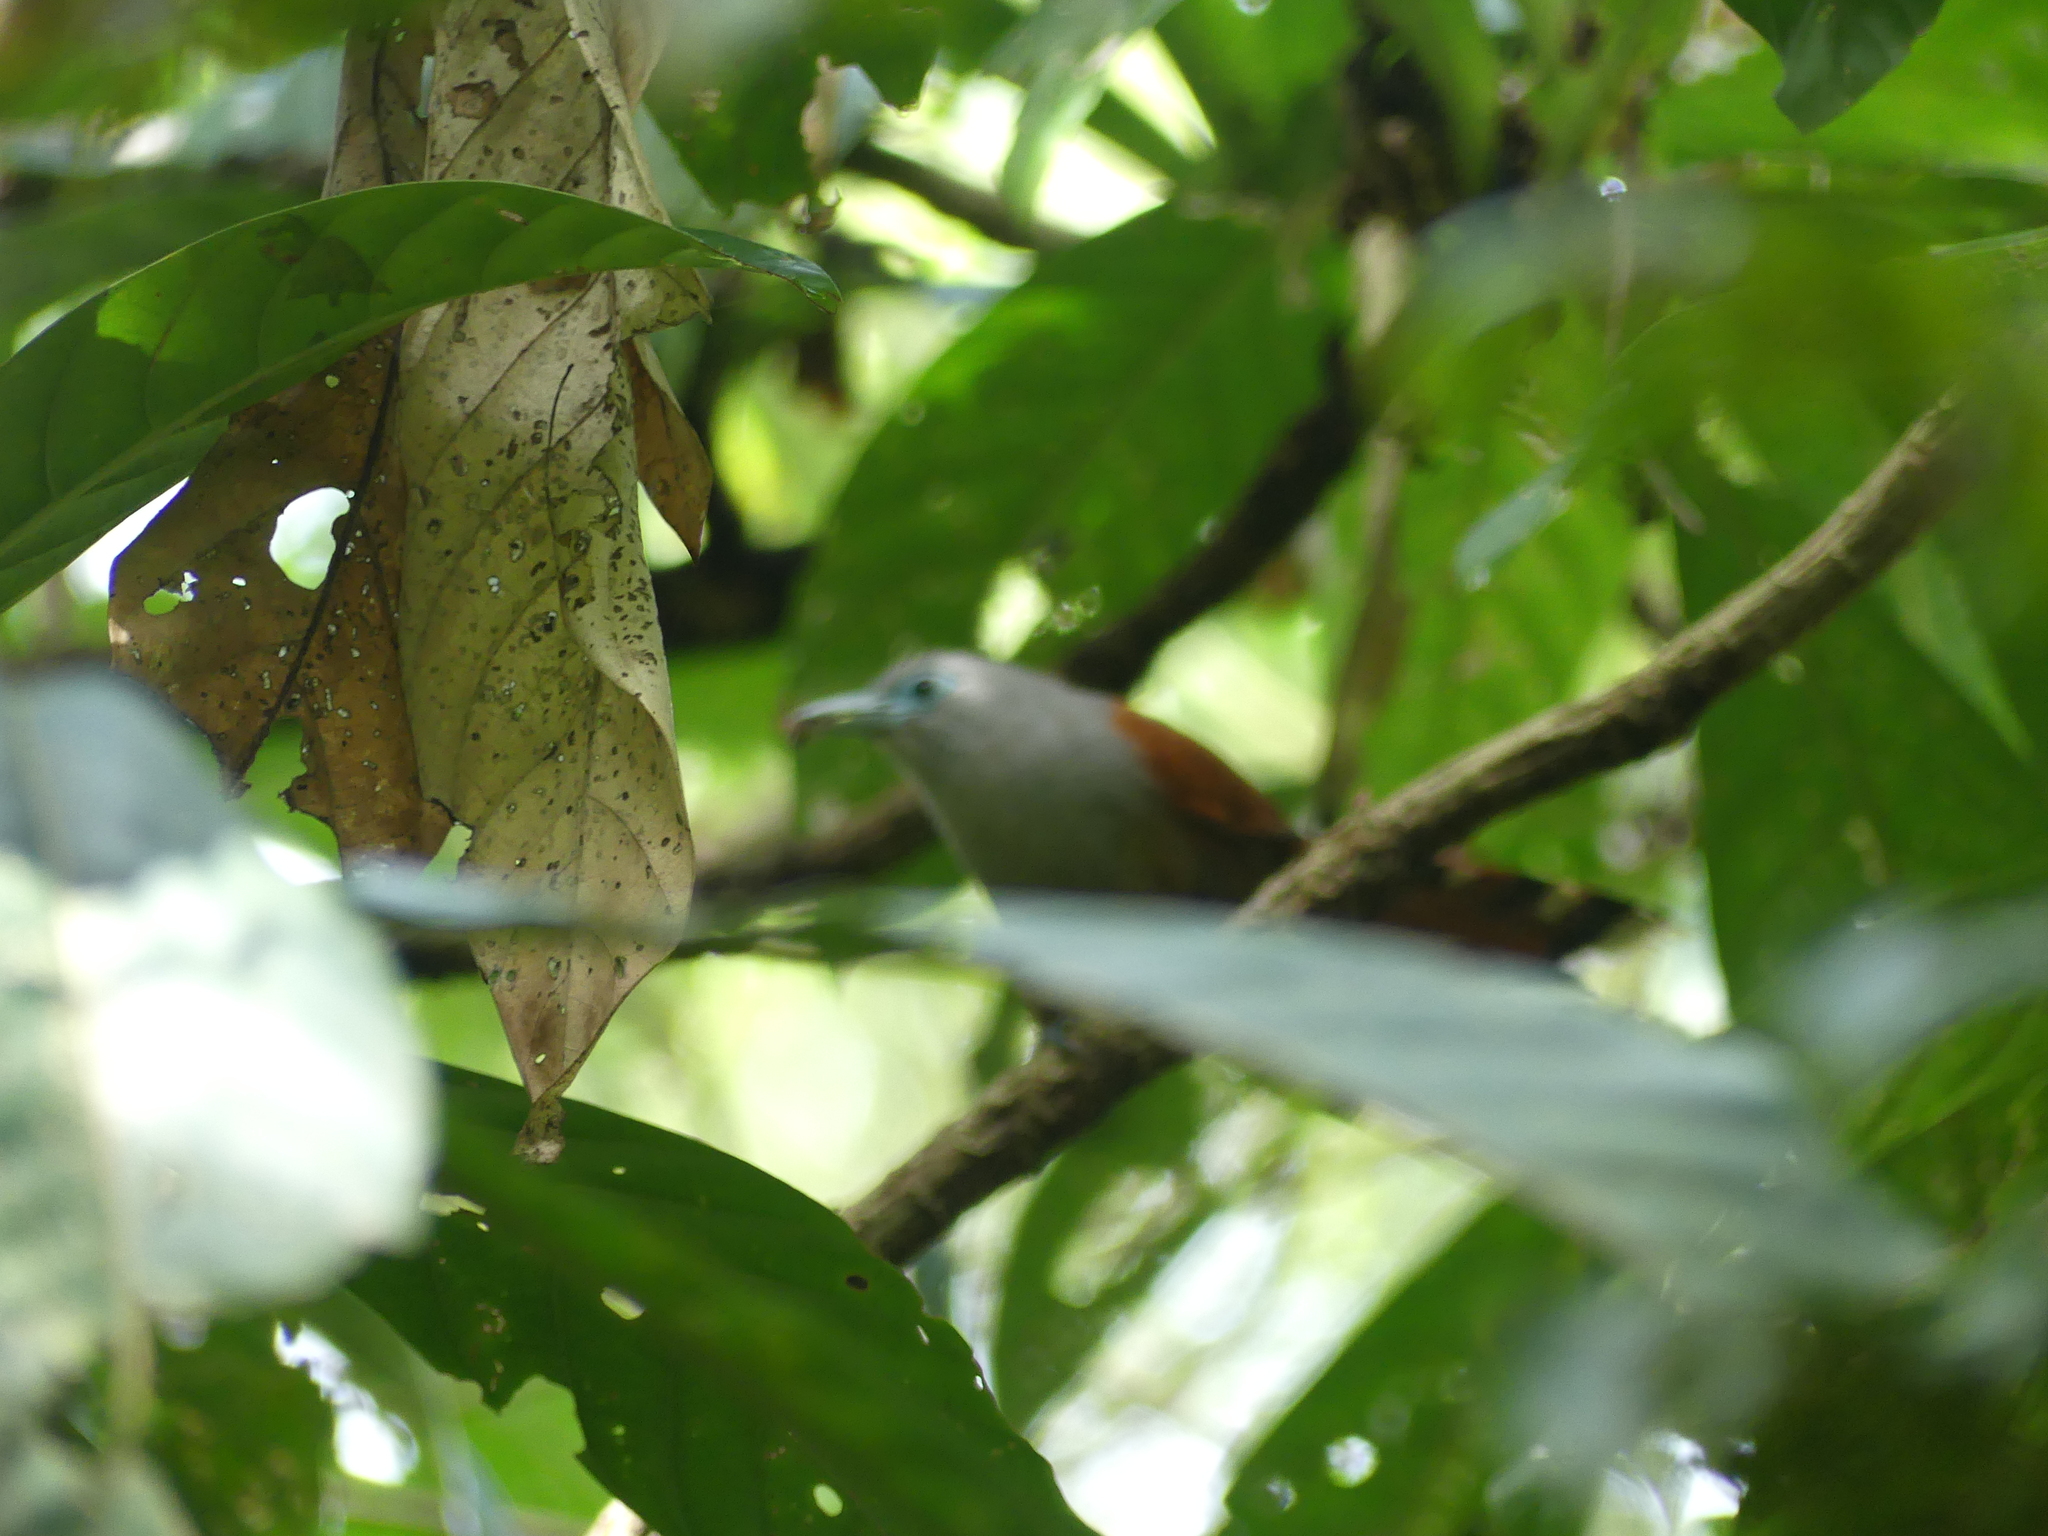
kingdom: Animalia
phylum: Chordata
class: Aves
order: Cuculiformes
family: Cuculidae
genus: Rhinortha
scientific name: Rhinortha chlorophaea
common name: Raffles's malkoha
